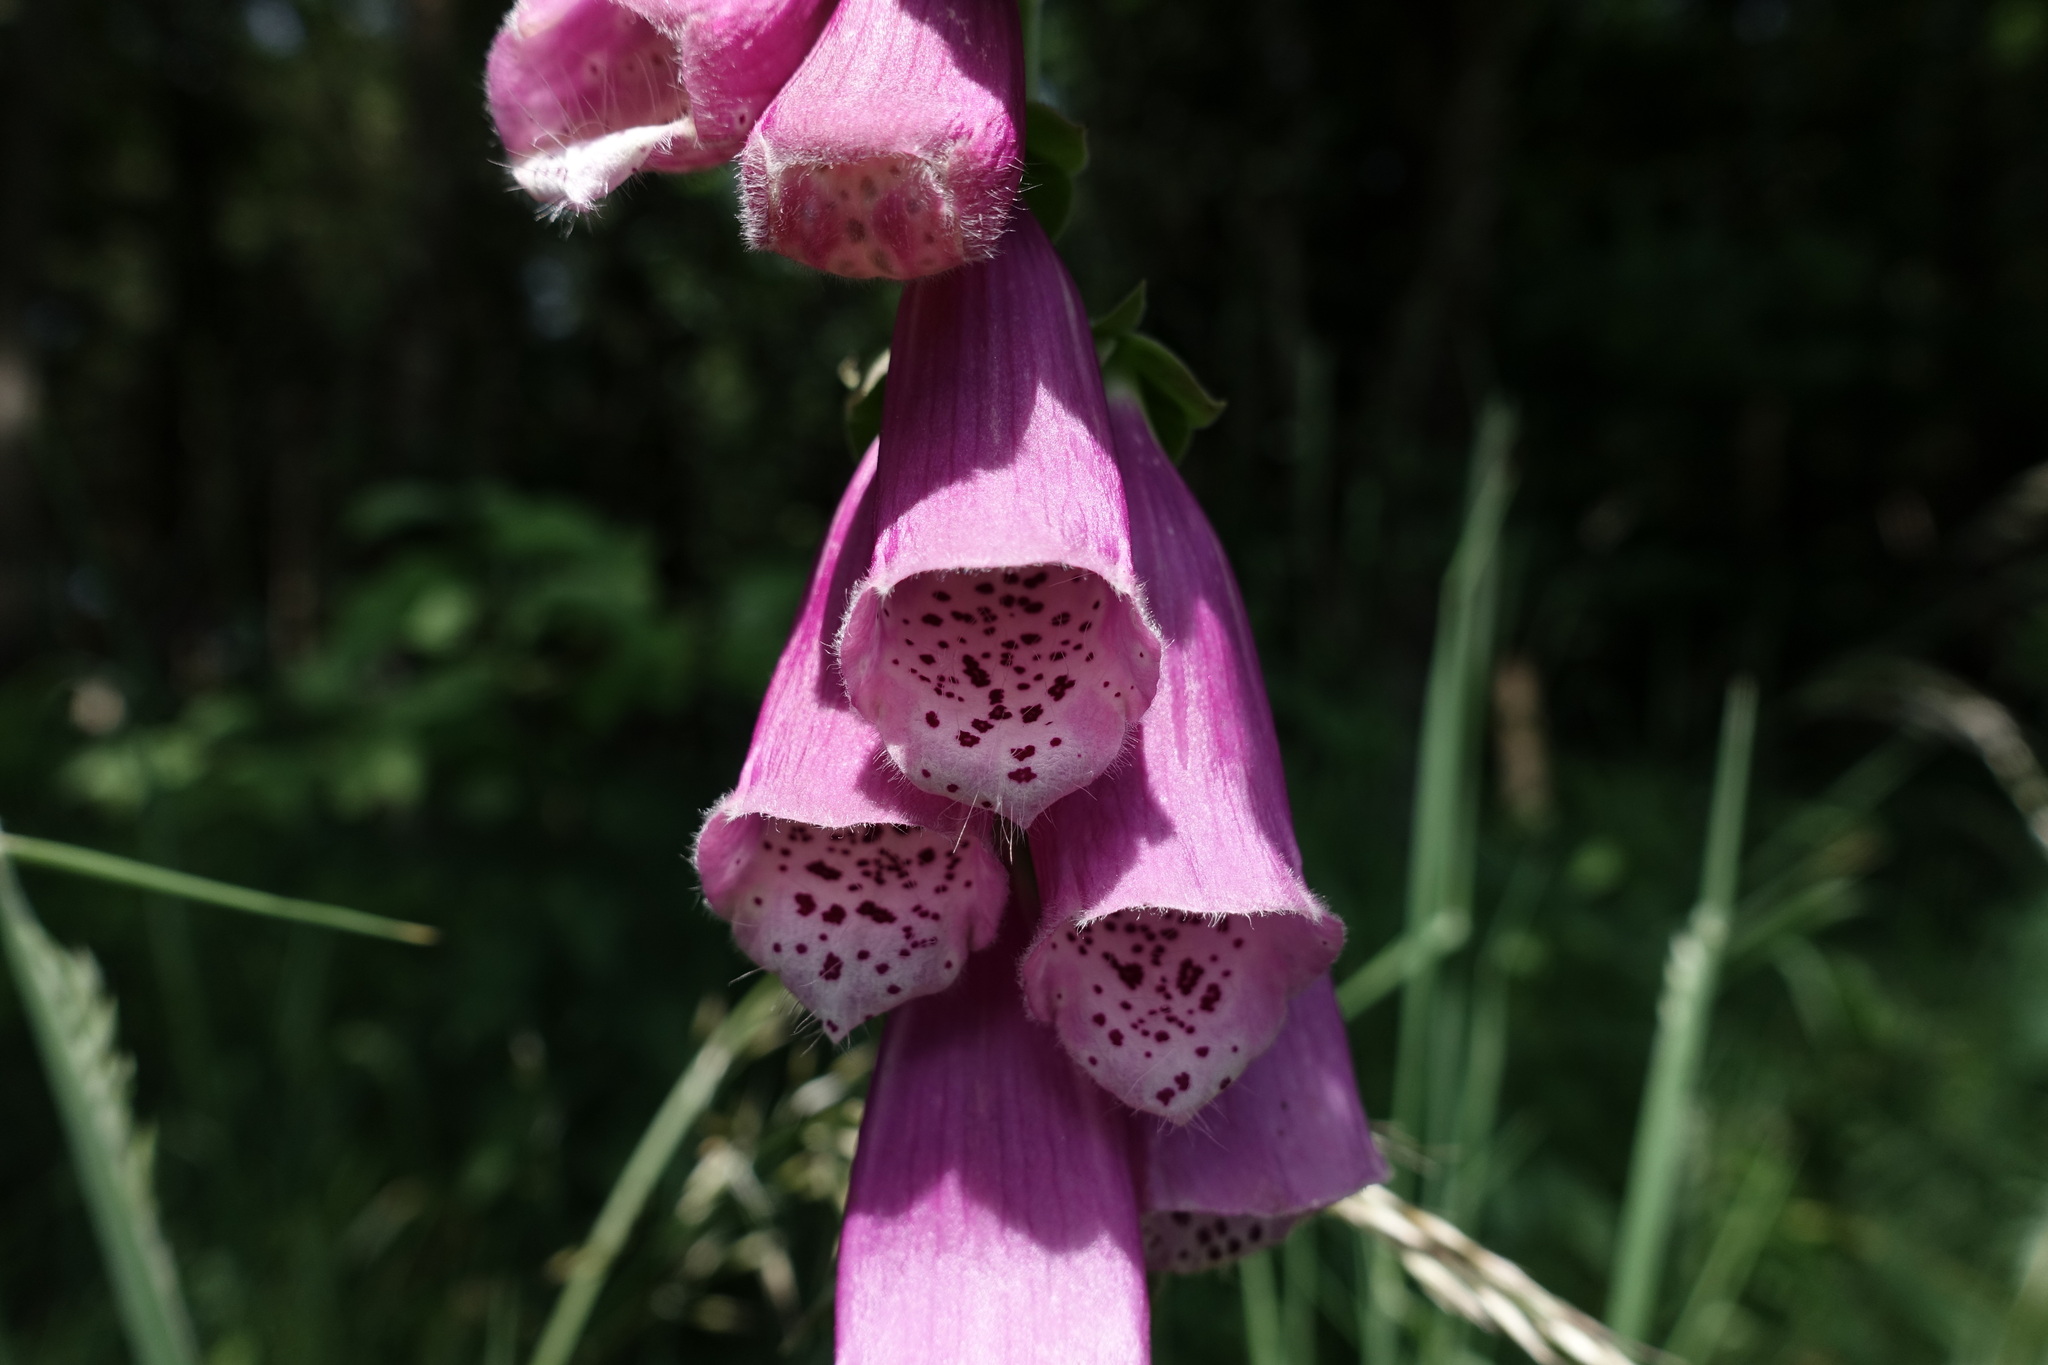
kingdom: Plantae
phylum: Tracheophyta
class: Magnoliopsida
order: Lamiales
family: Plantaginaceae
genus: Digitalis
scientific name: Digitalis purpurea
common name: Foxglove
